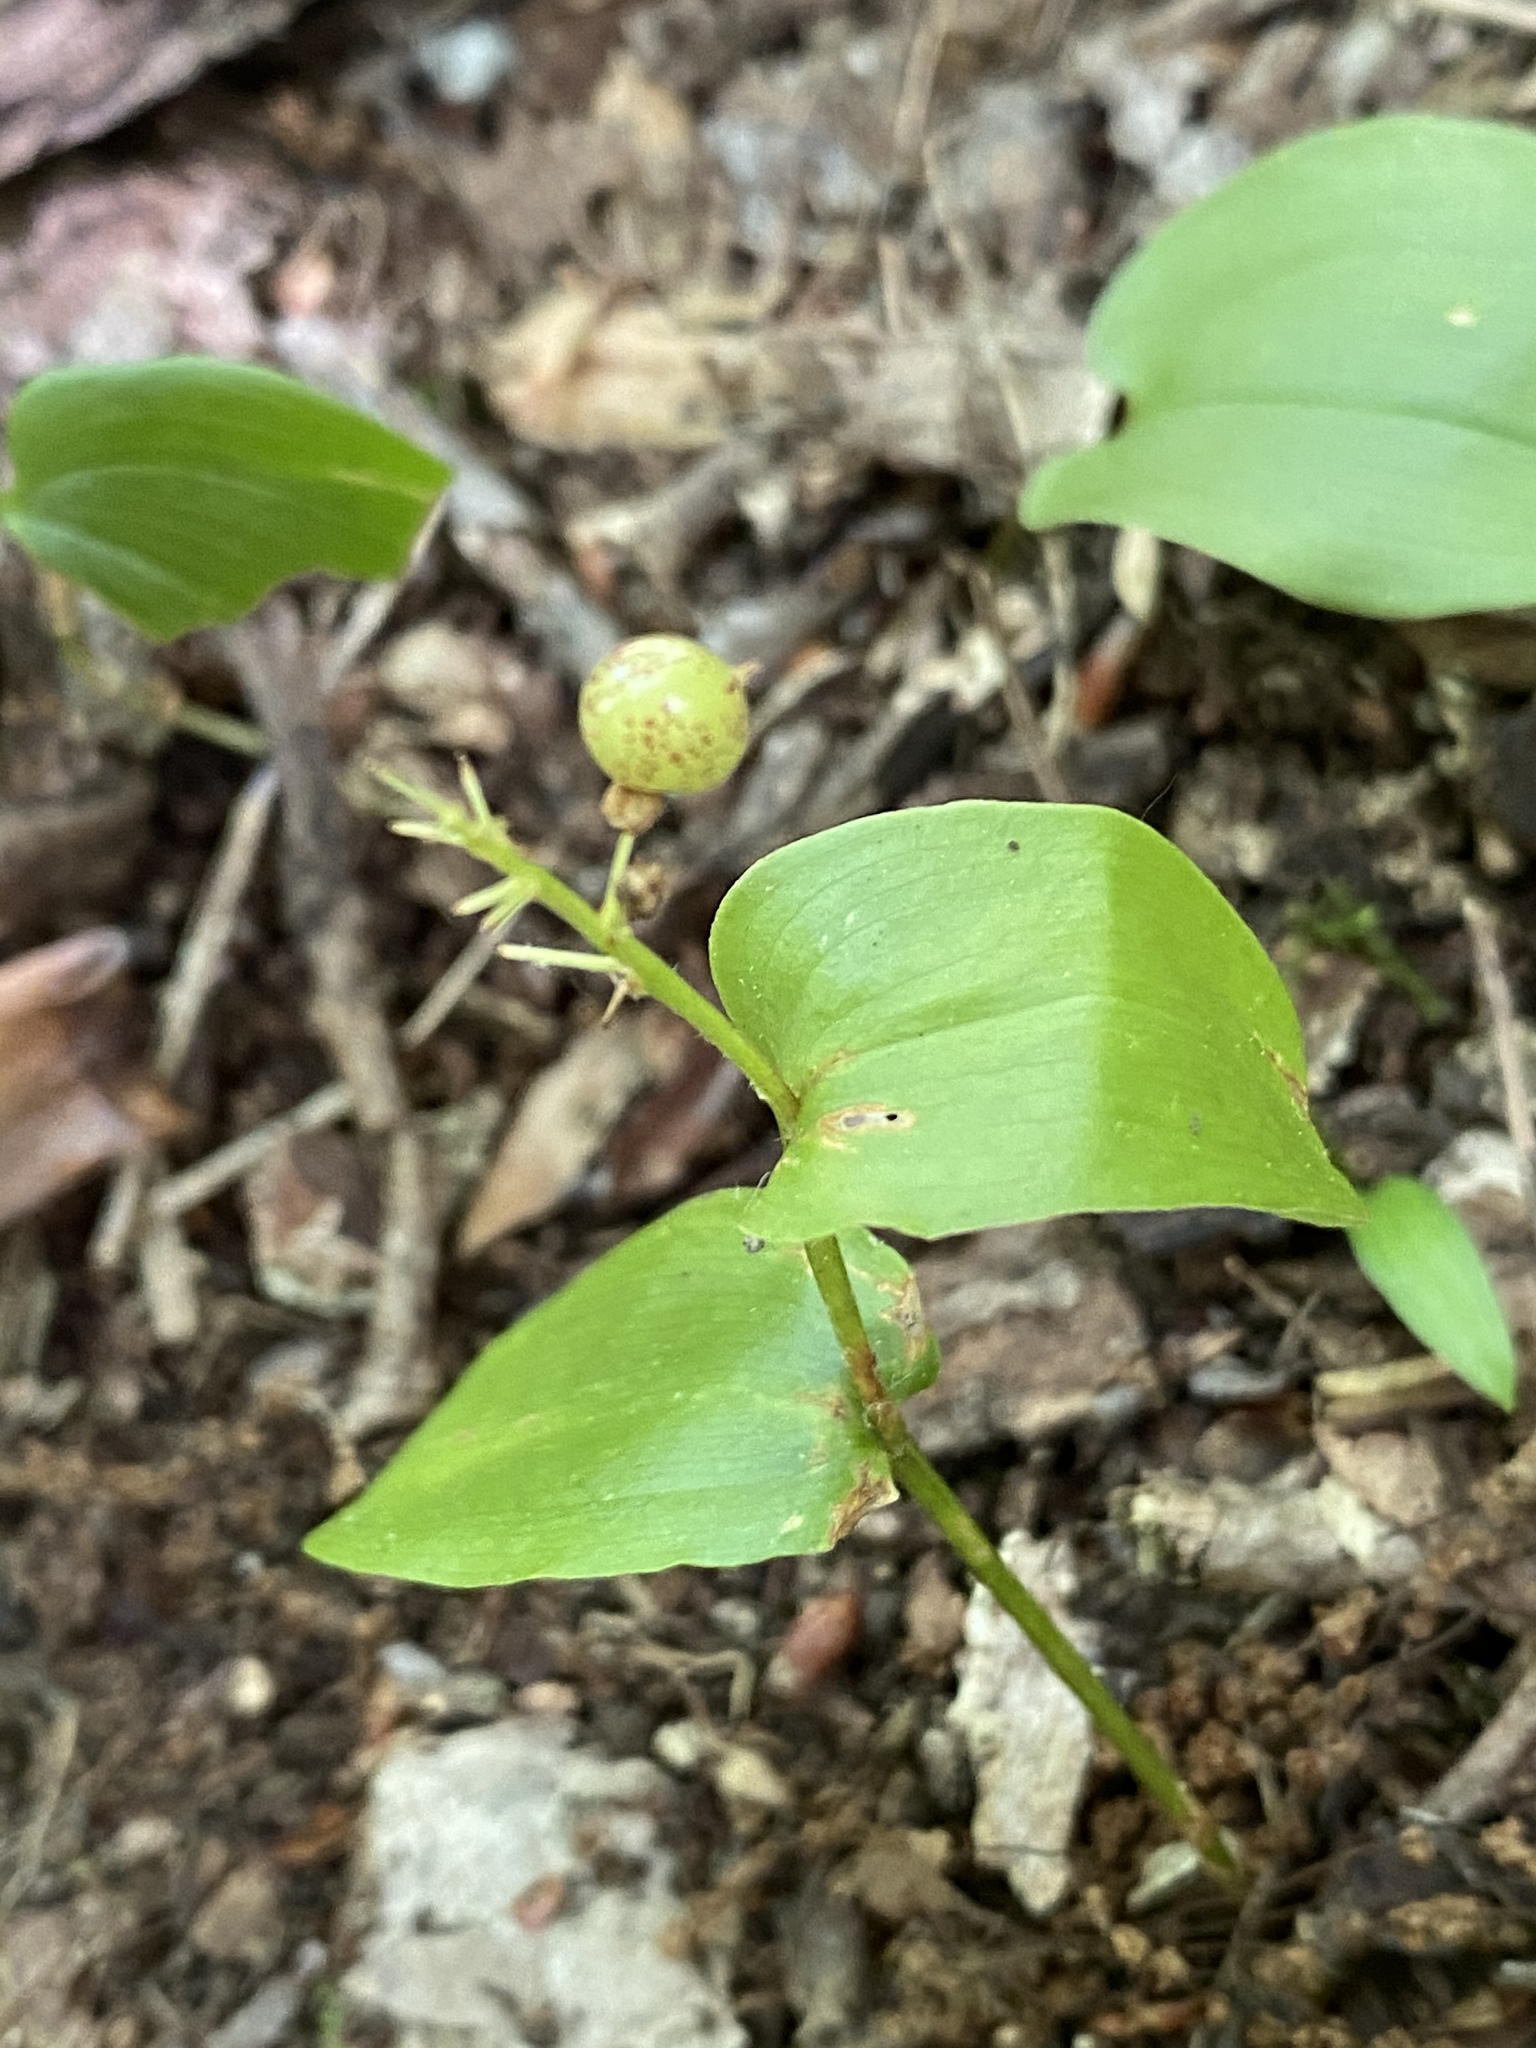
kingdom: Plantae
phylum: Tracheophyta
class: Liliopsida
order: Asparagales
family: Asparagaceae
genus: Maianthemum
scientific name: Maianthemum canadense
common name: False lily-of-the-valley
